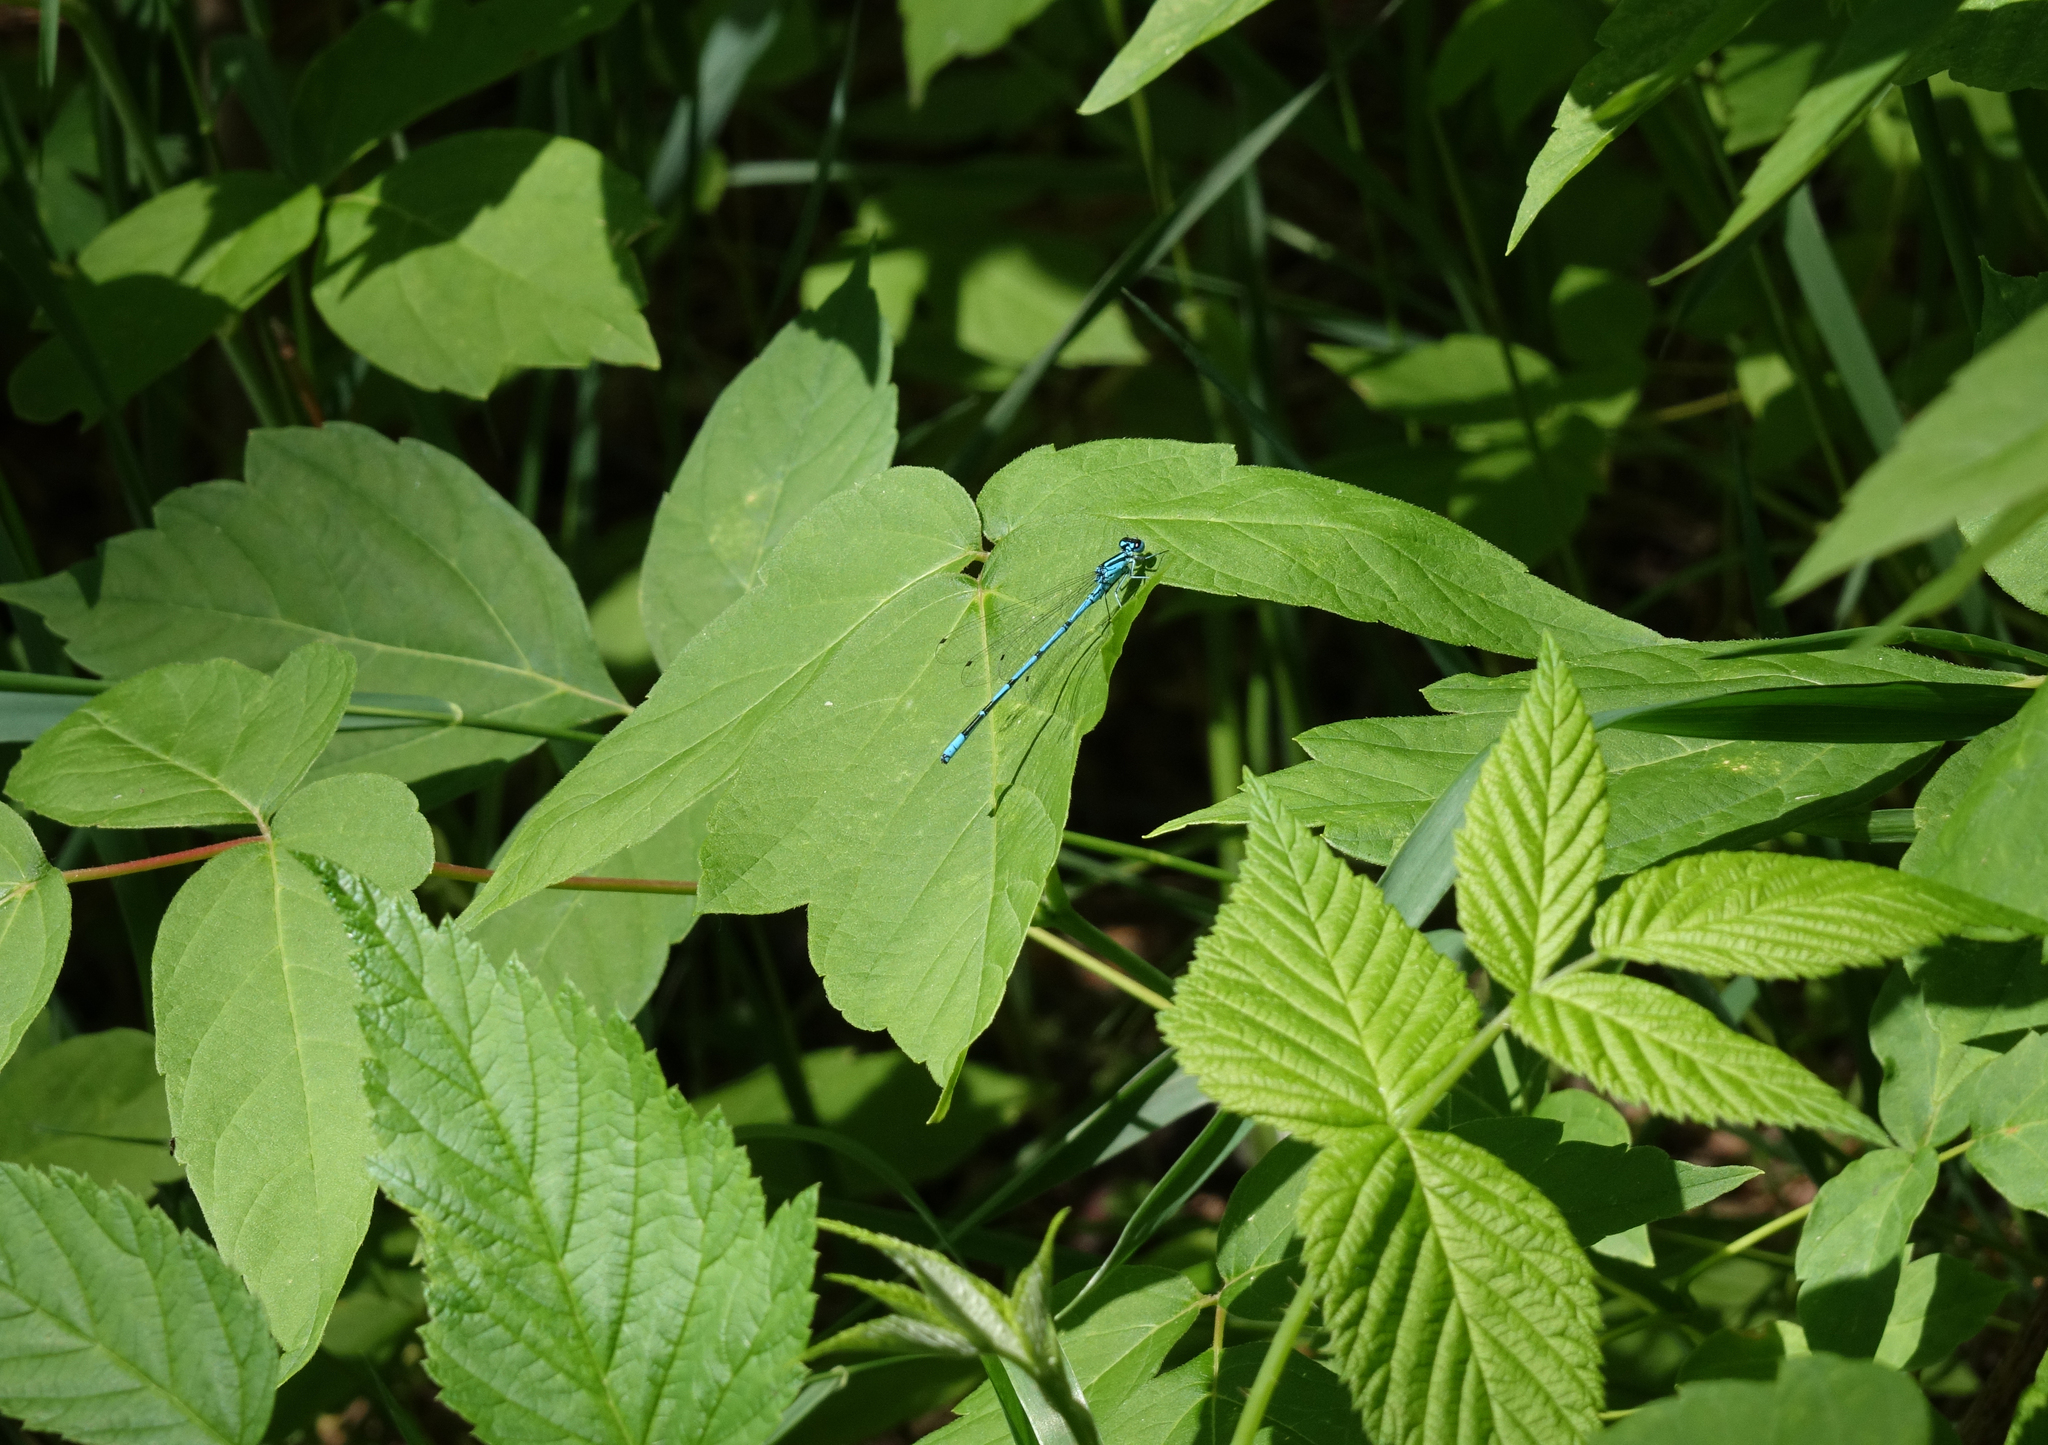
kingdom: Animalia
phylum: Arthropoda
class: Insecta
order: Odonata
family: Coenagrionidae
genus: Coenagrion
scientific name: Coenagrion puella
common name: Azure damselfly
